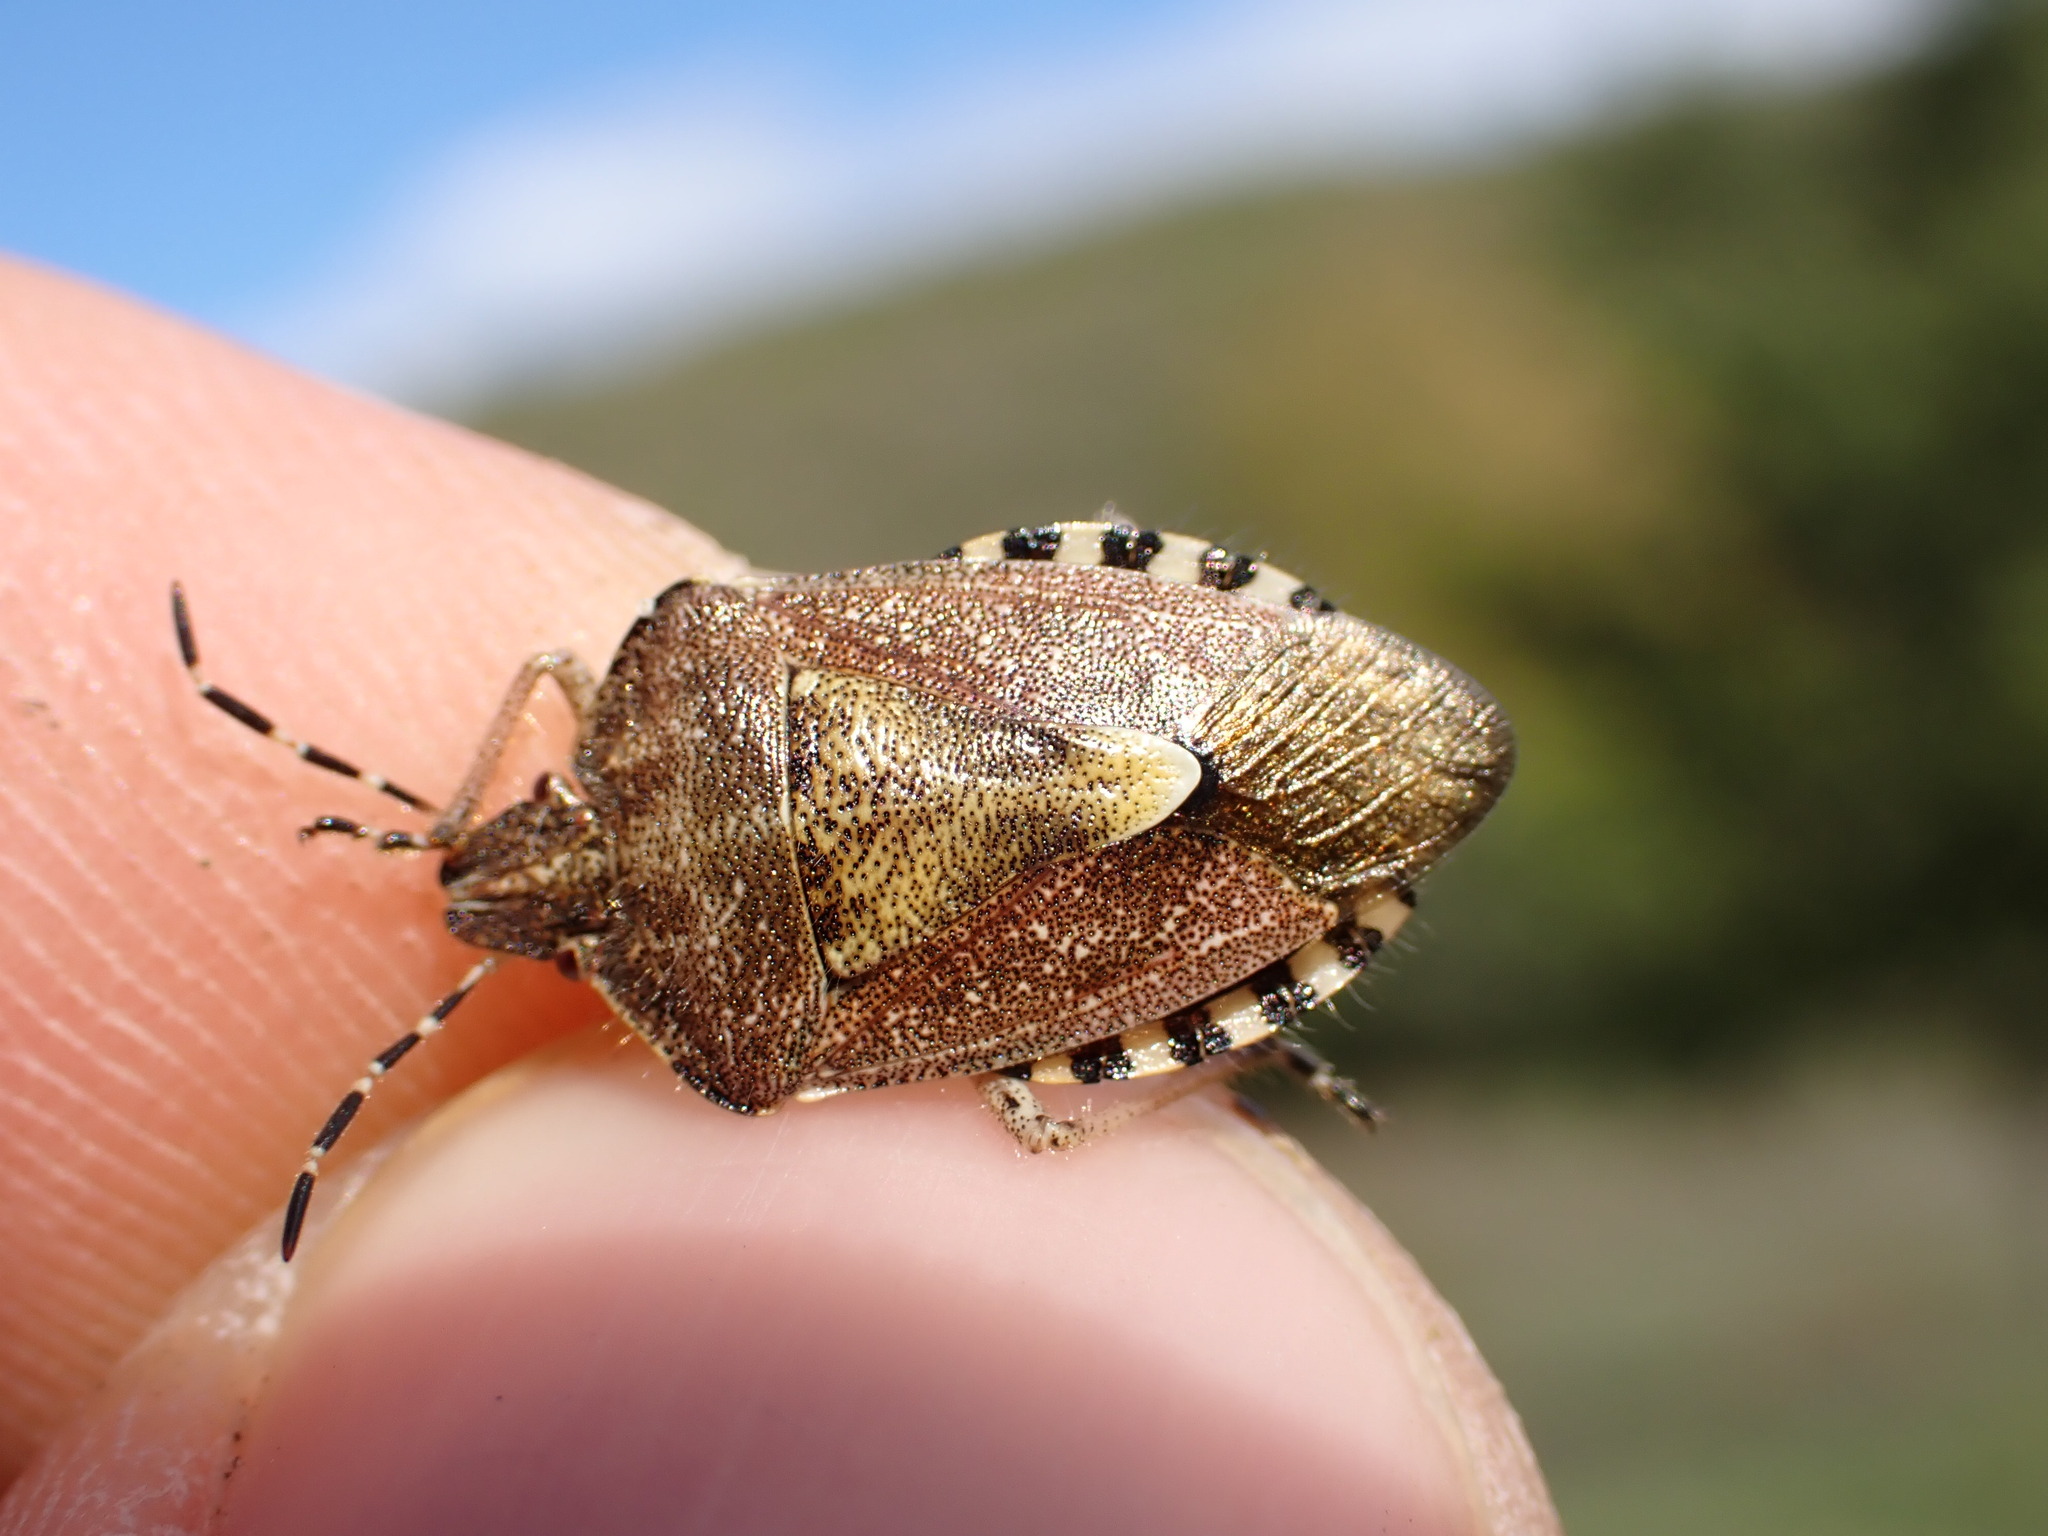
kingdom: Animalia
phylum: Arthropoda
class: Insecta
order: Hemiptera
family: Pentatomidae
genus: Dolycoris
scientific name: Dolycoris baccarum
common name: Sloe bug
